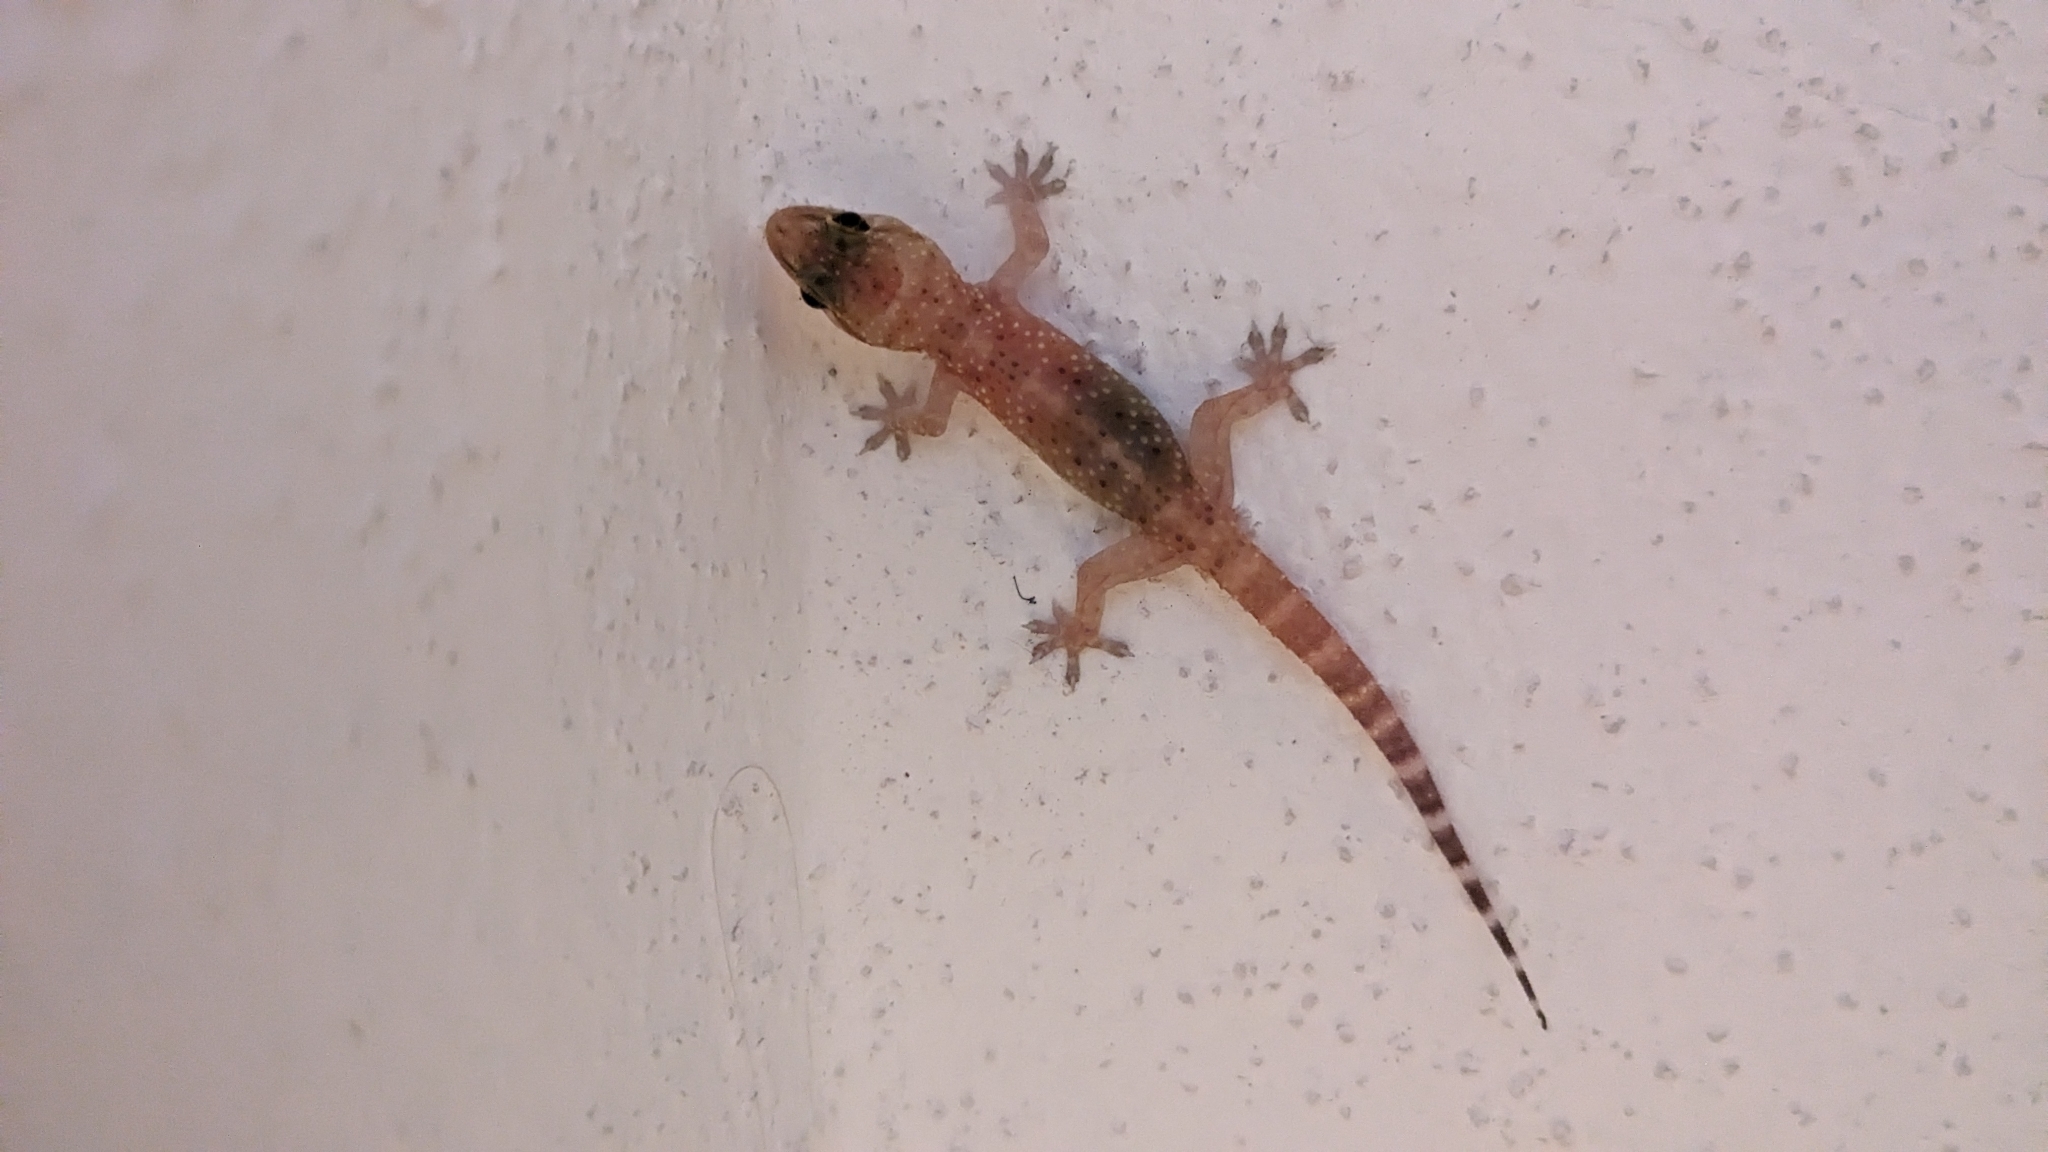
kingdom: Animalia
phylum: Chordata
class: Squamata
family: Gekkonidae
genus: Hemidactylus
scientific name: Hemidactylus turcicus
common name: Turkish gecko
